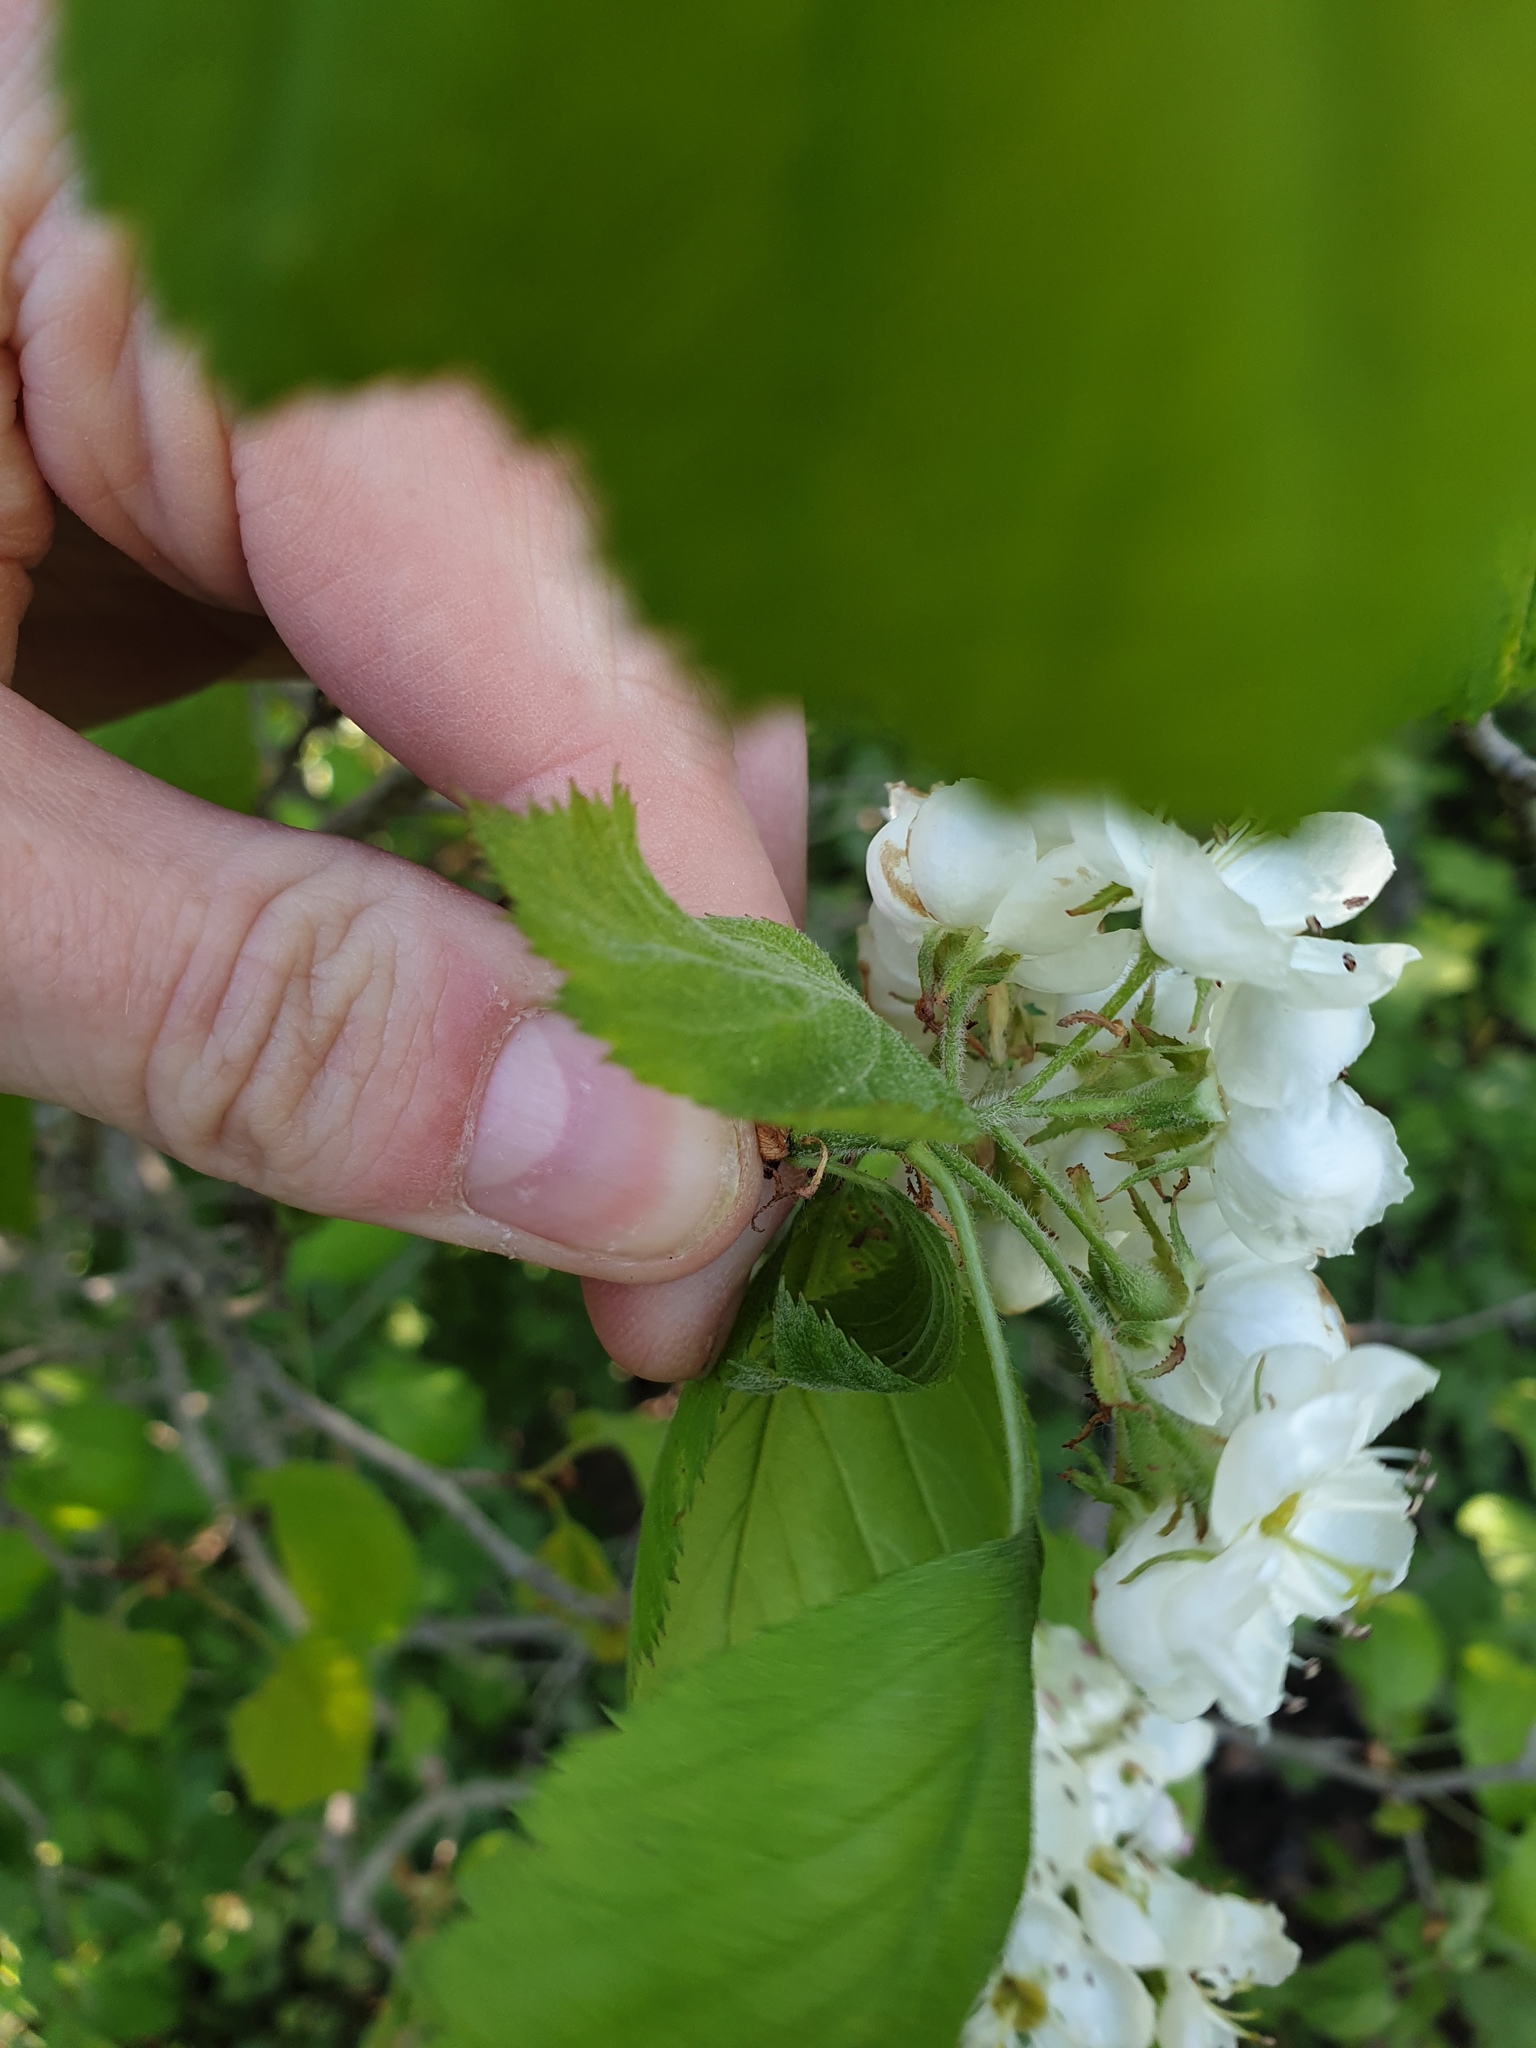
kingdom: Plantae
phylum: Tracheophyta
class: Magnoliopsida
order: Rosales
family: Rosaceae
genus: Crataegus
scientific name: Crataegus coccinea
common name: Scarlet hawthorn
